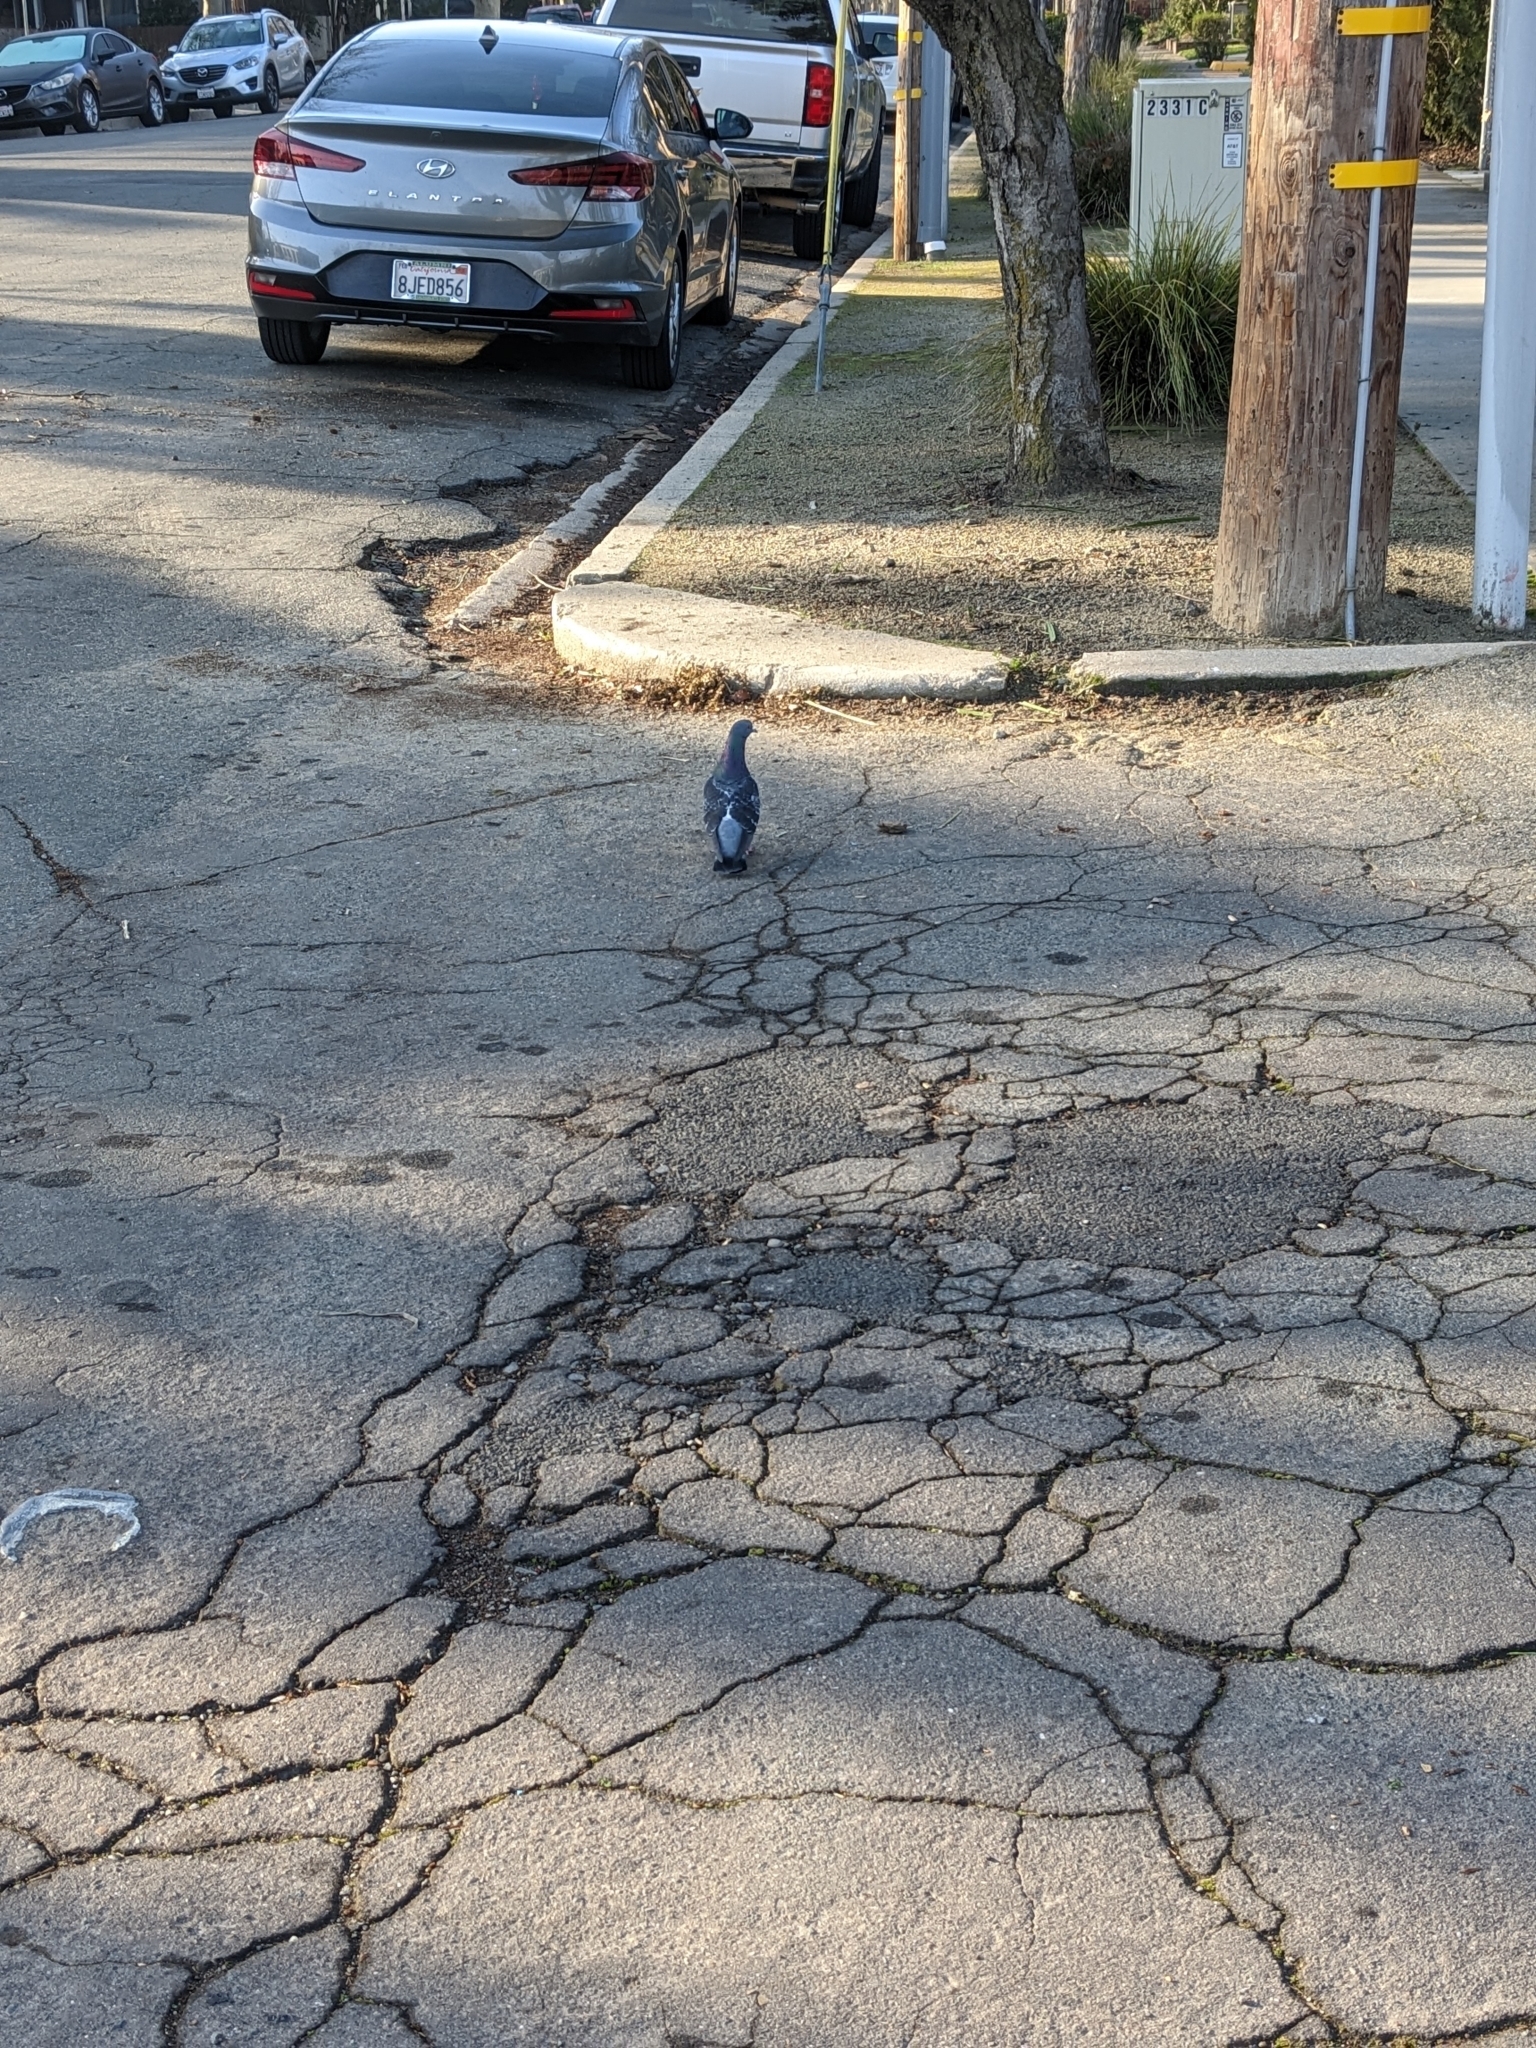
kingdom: Animalia
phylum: Chordata
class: Aves
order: Columbiformes
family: Columbidae
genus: Columba
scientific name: Columba livia
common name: Rock pigeon
